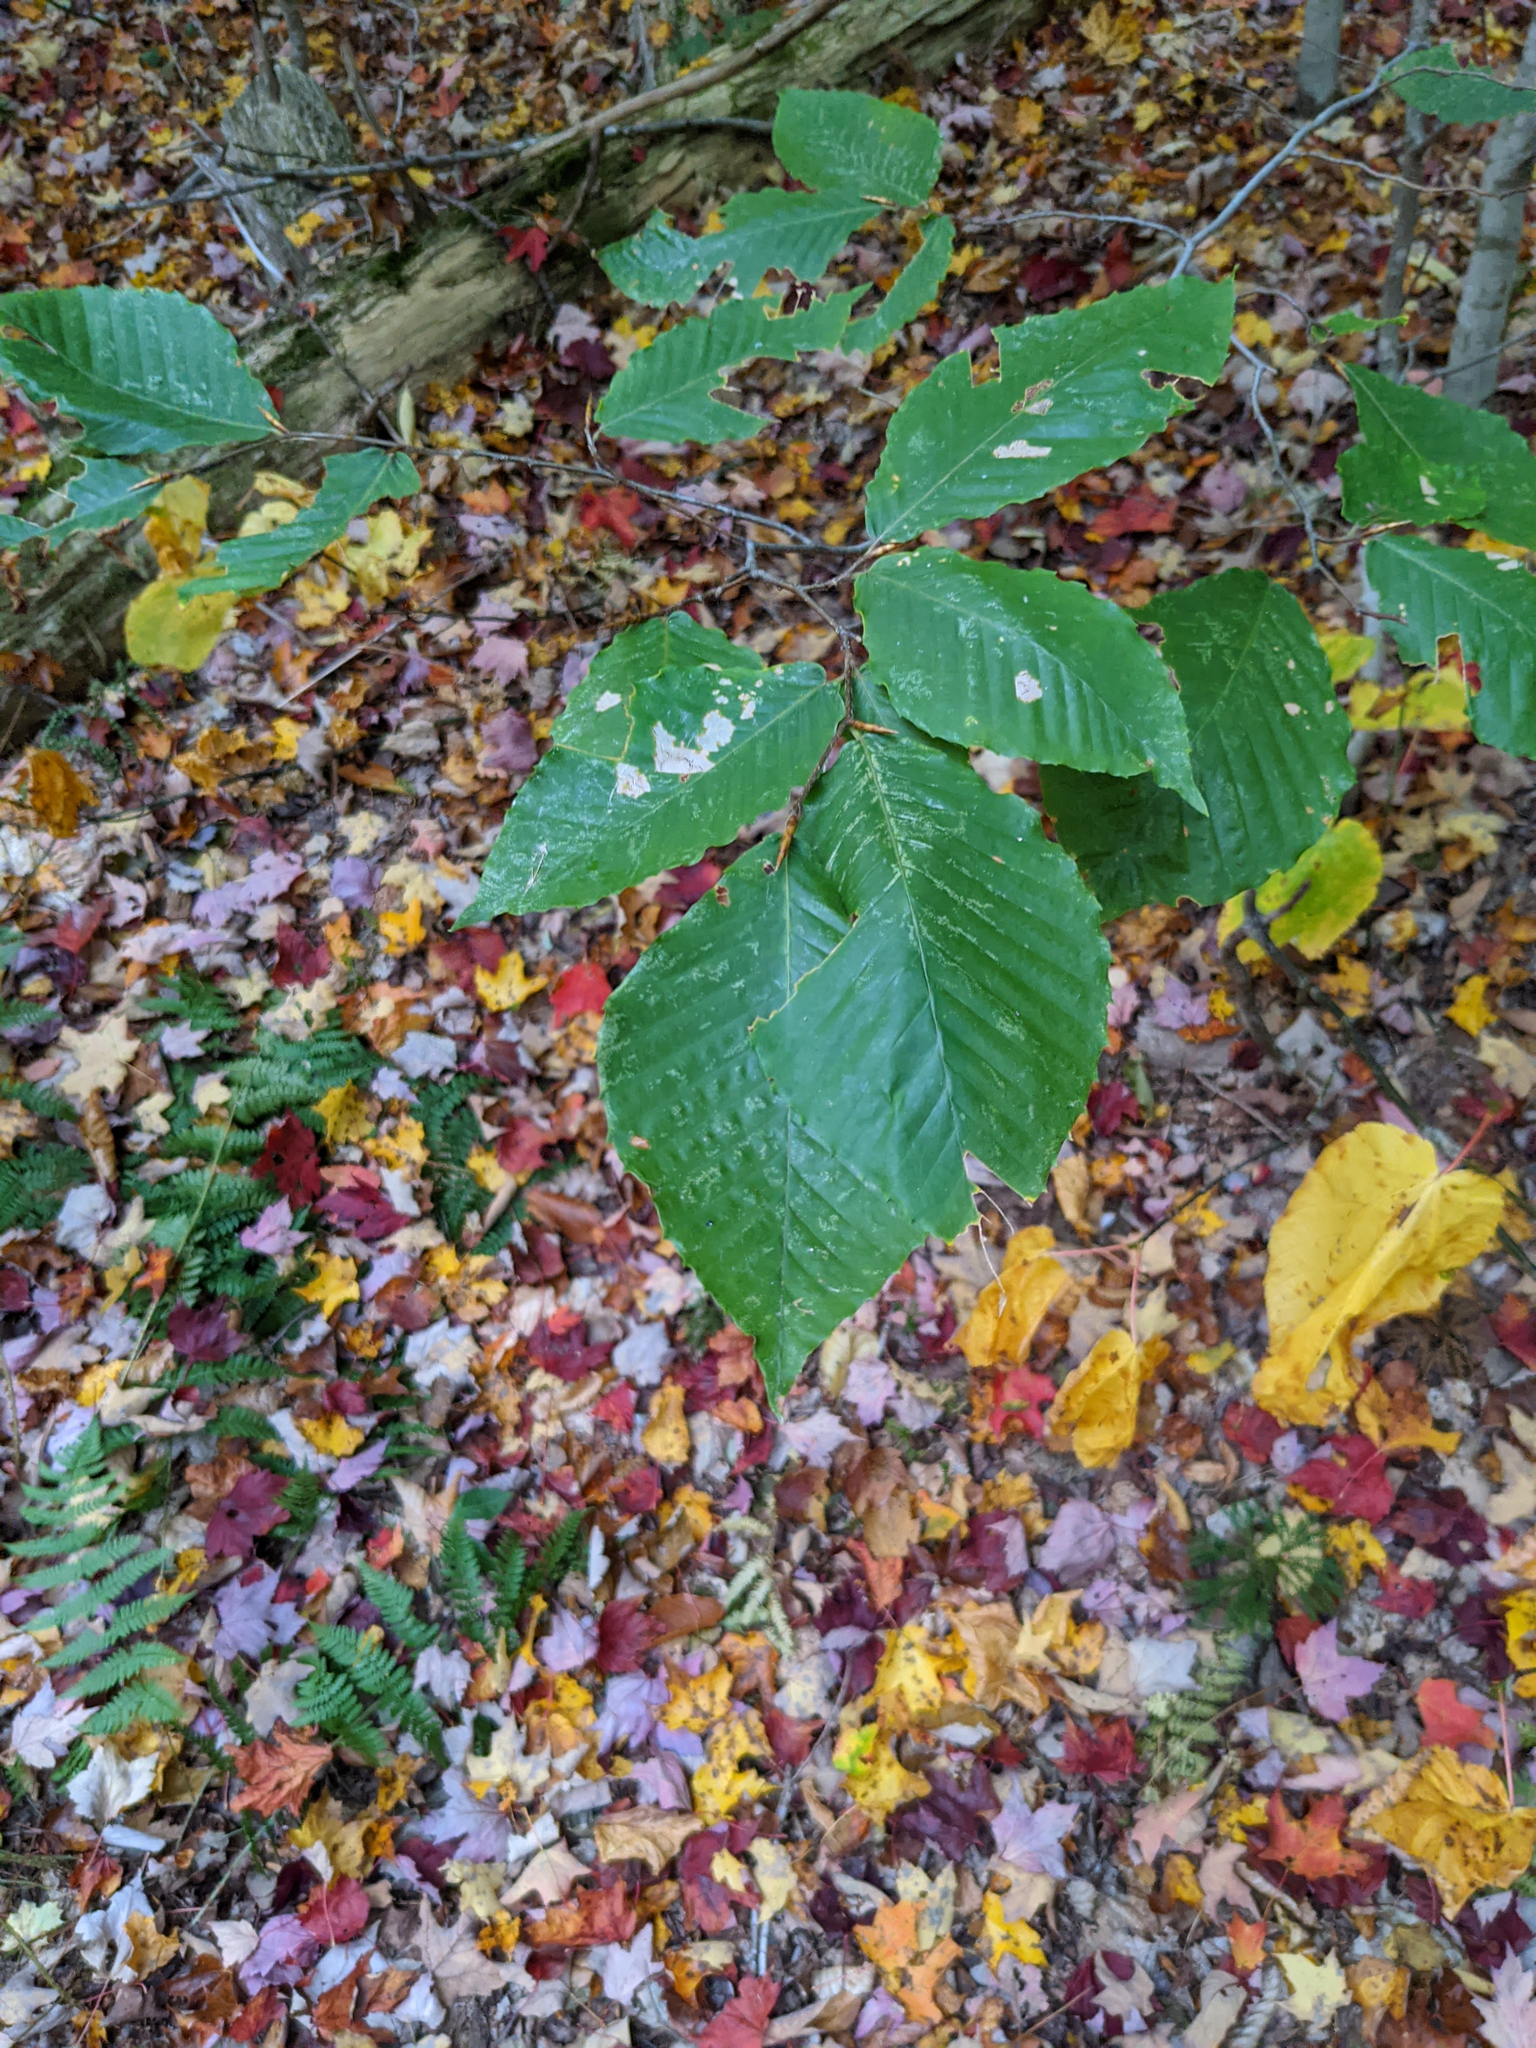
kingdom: Plantae
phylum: Tracheophyta
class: Magnoliopsida
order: Fagales
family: Fagaceae
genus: Fagus
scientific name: Fagus grandifolia
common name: American beech
